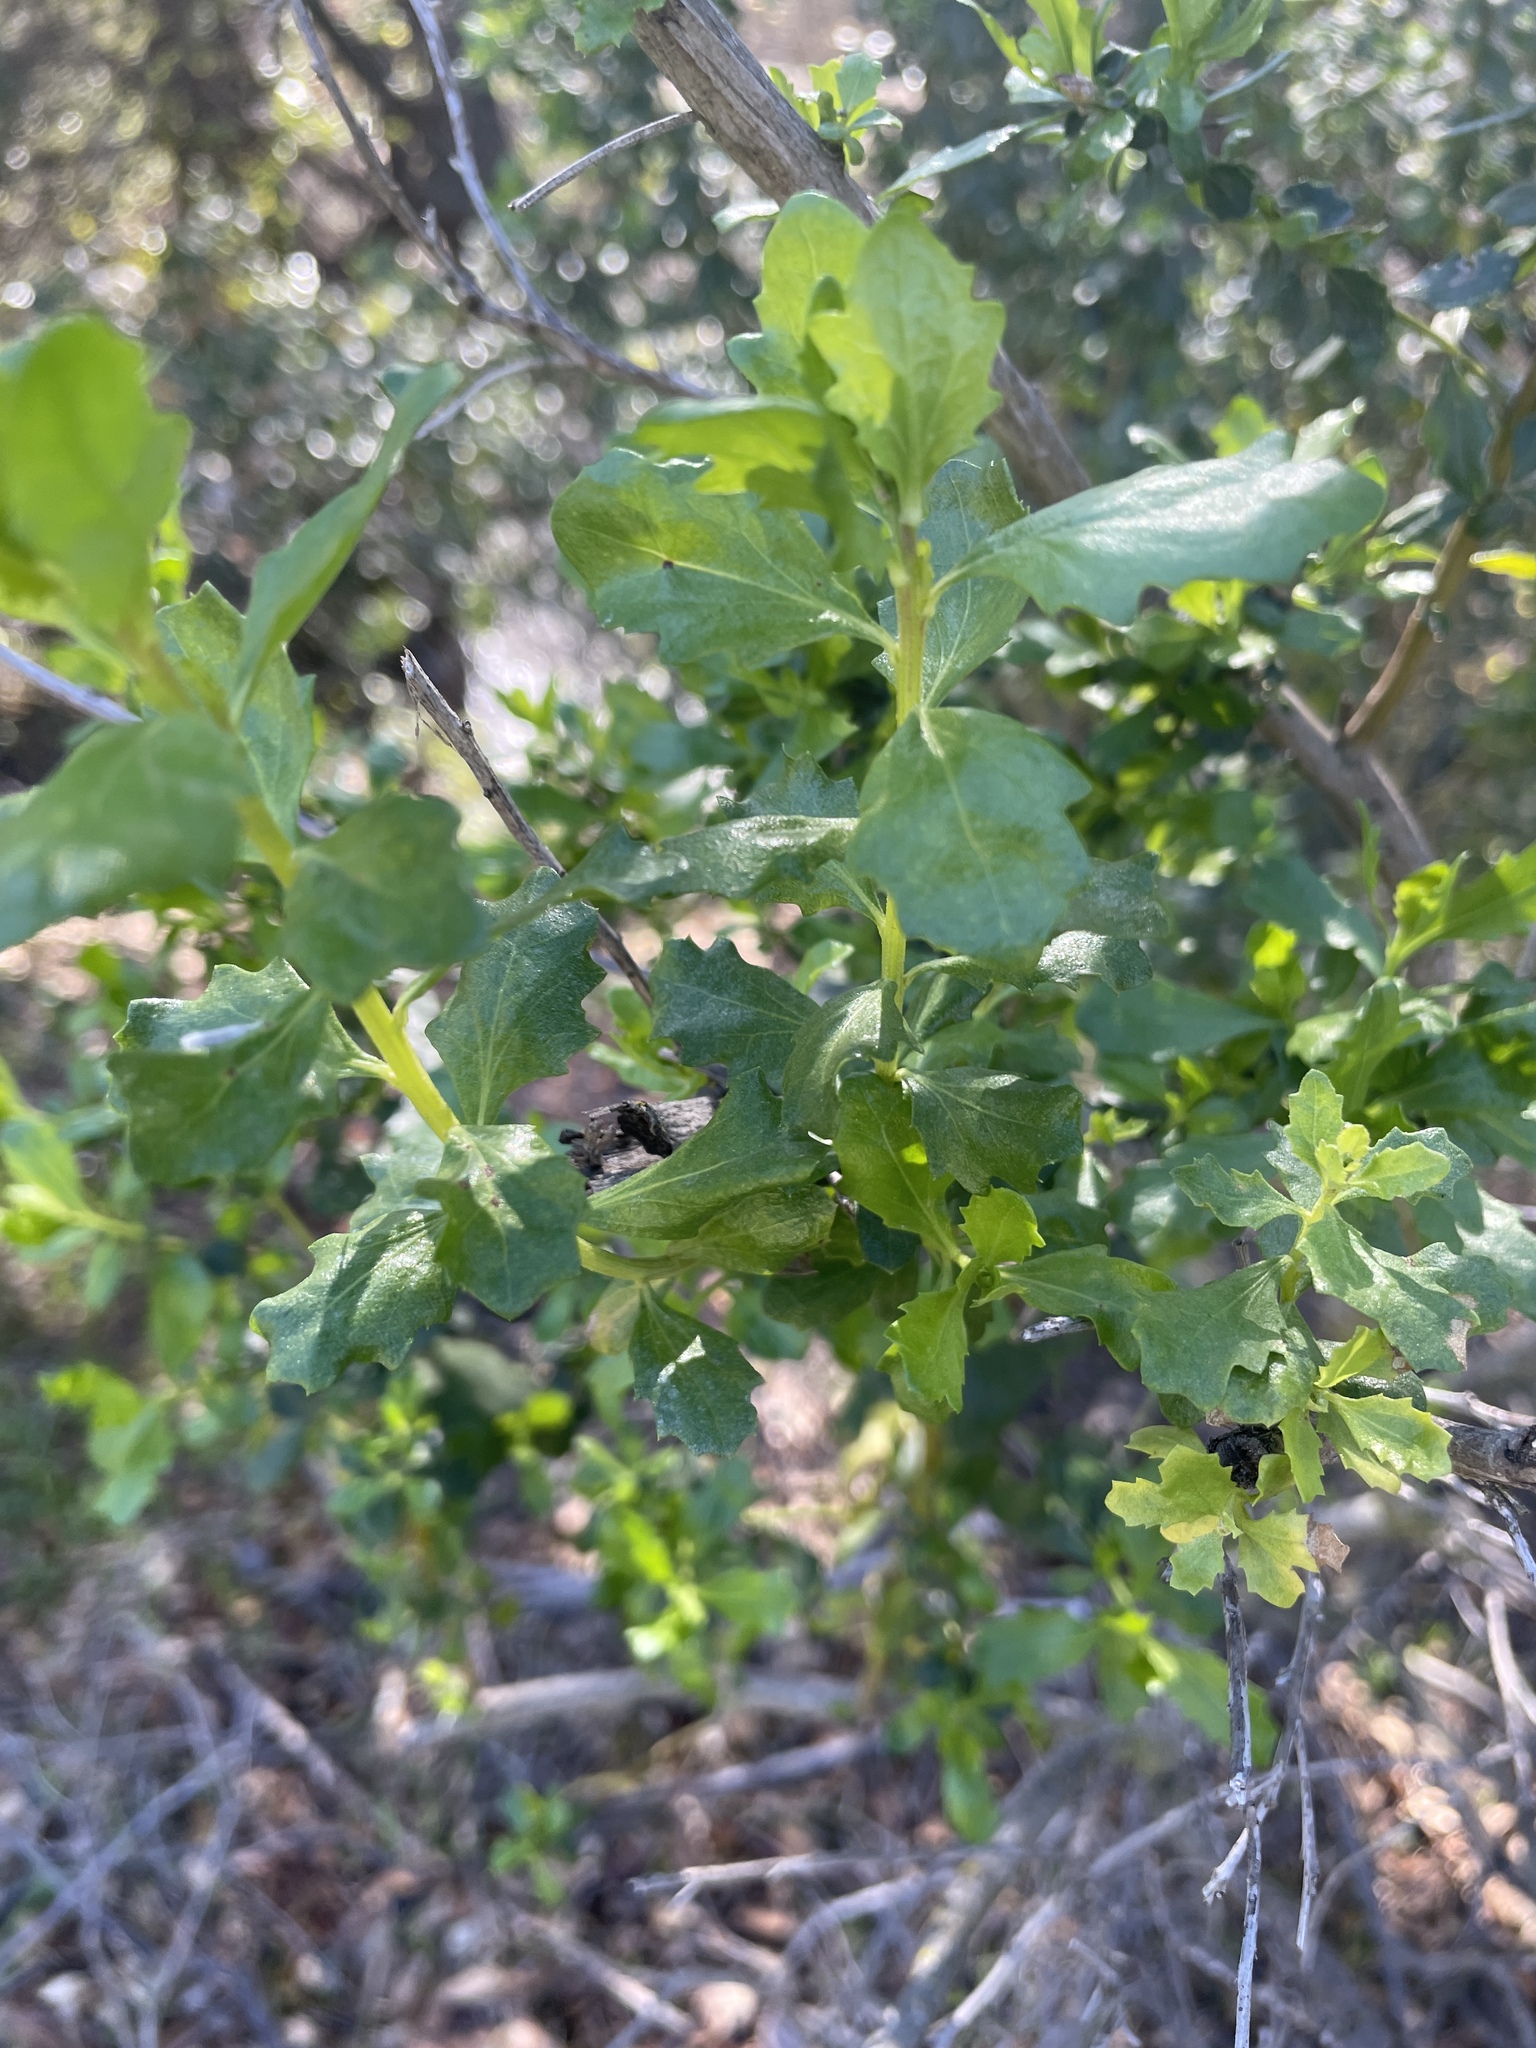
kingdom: Plantae
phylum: Tracheophyta
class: Magnoliopsida
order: Asterales
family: Asteraceae
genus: Baccharis
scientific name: Baccharis pilularis
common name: Coyotebrush
